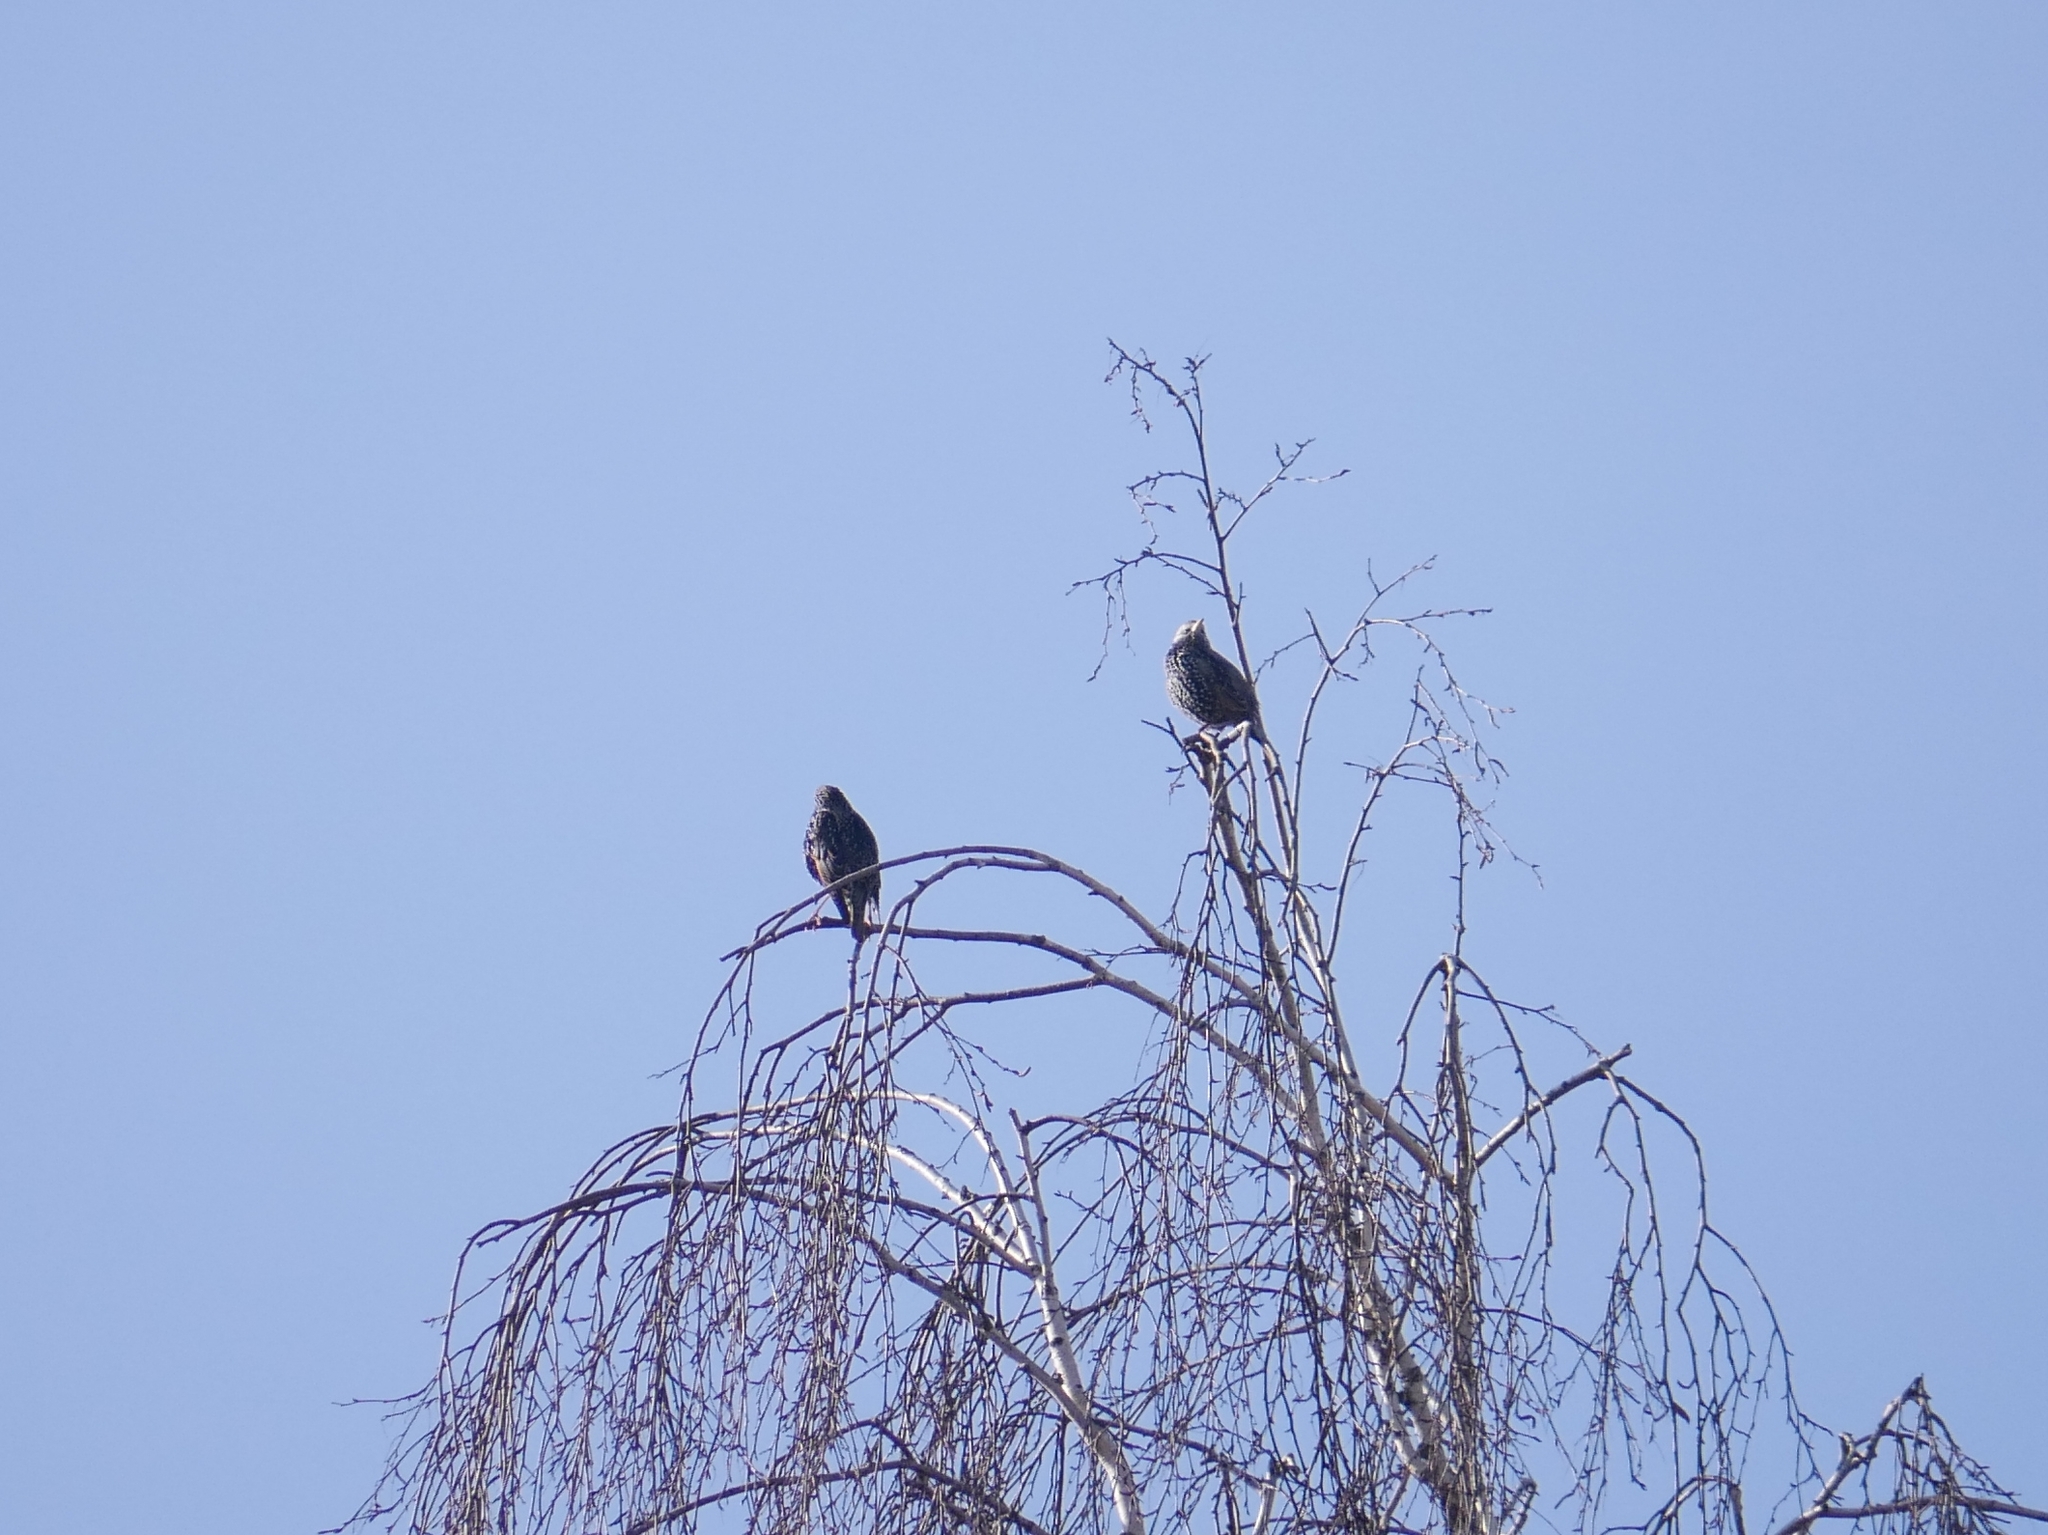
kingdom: Animalia
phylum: Chordata
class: Aves
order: Passeriformes
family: Sturnidae
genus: Sturnus
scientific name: Sturnus vulgaris
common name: Common starling
